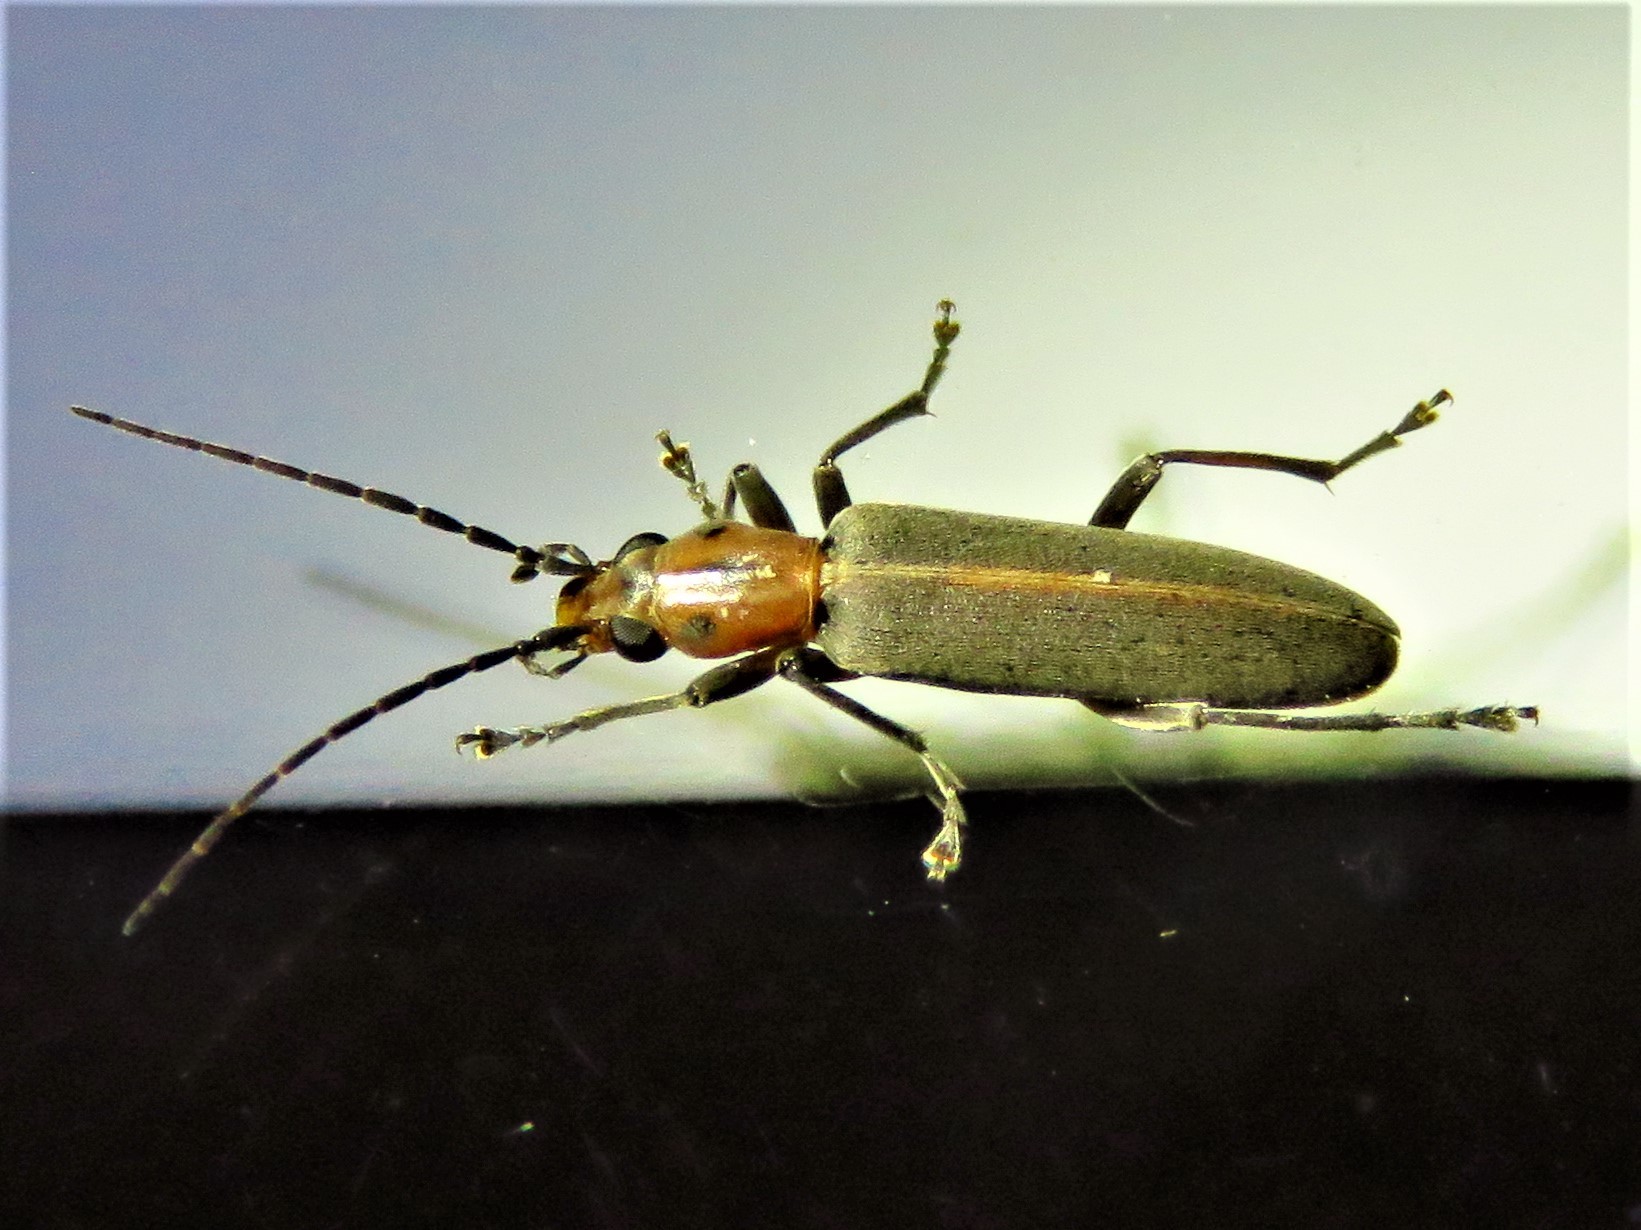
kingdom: Animalia
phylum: Arthropoda
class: Insecta
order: Coleoptera
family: Oedemeridae
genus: Oxacis
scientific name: Oxacis trimaculata
